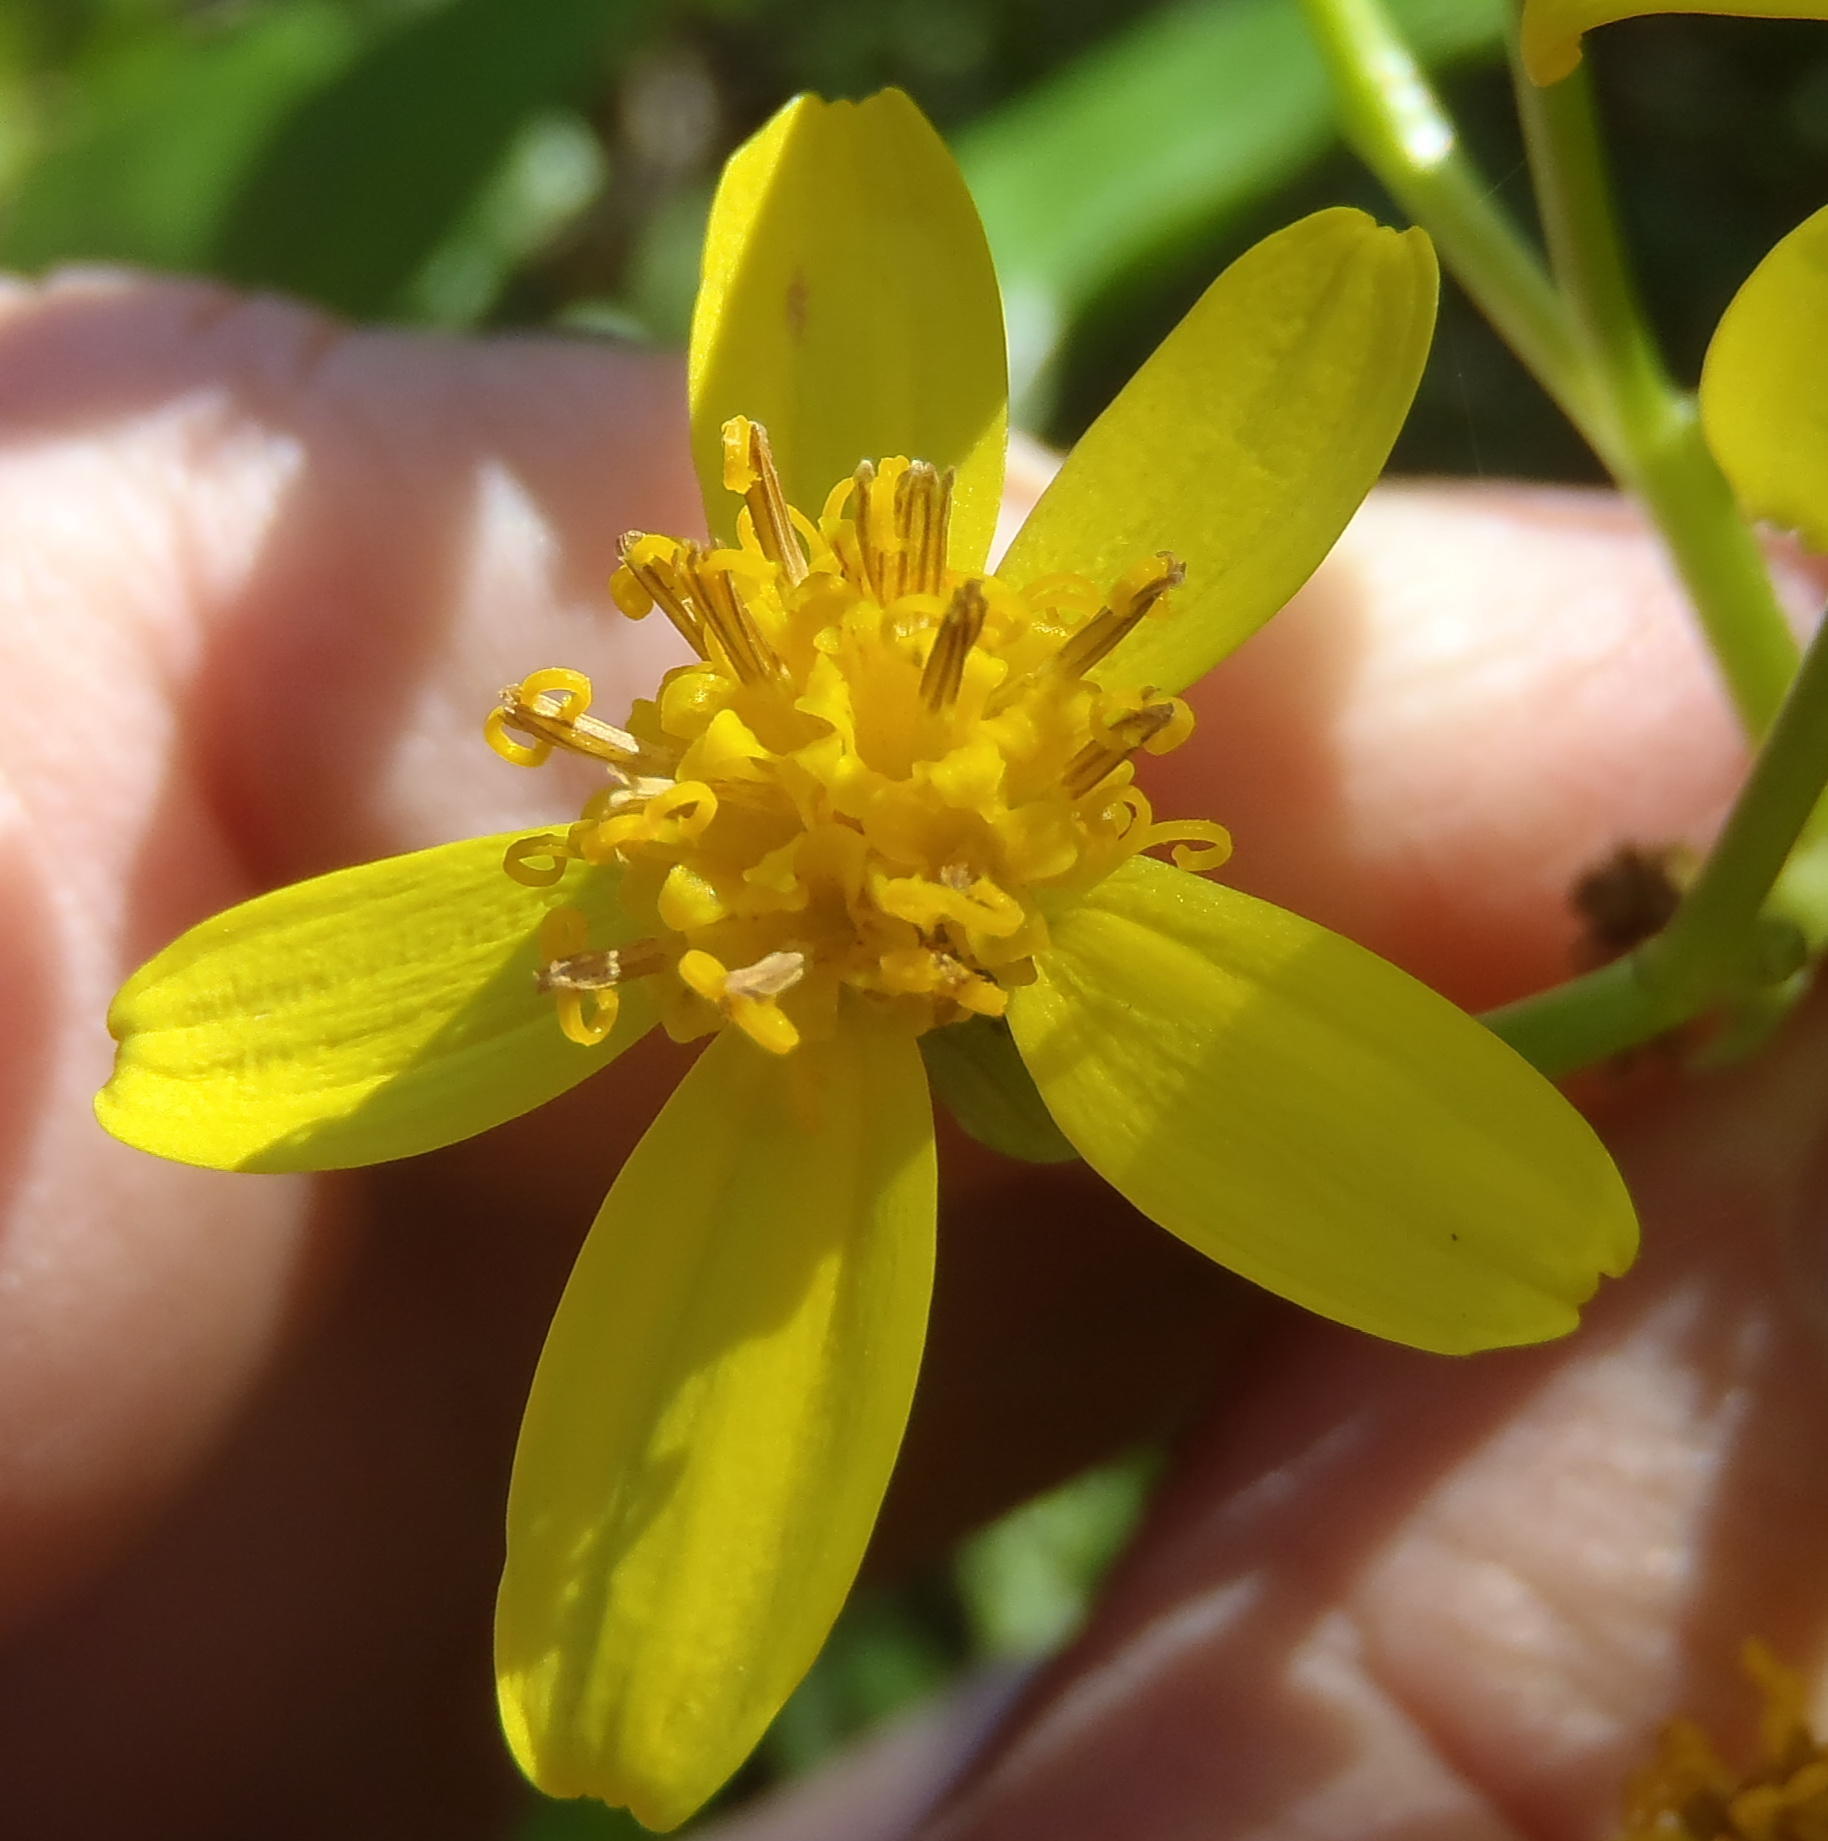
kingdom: Plantae
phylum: Tracheophyta
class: Magnoliopsida
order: Asterales
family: Asteraceae
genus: Senecio
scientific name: Senecio angulatus
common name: Climbing groundsel
